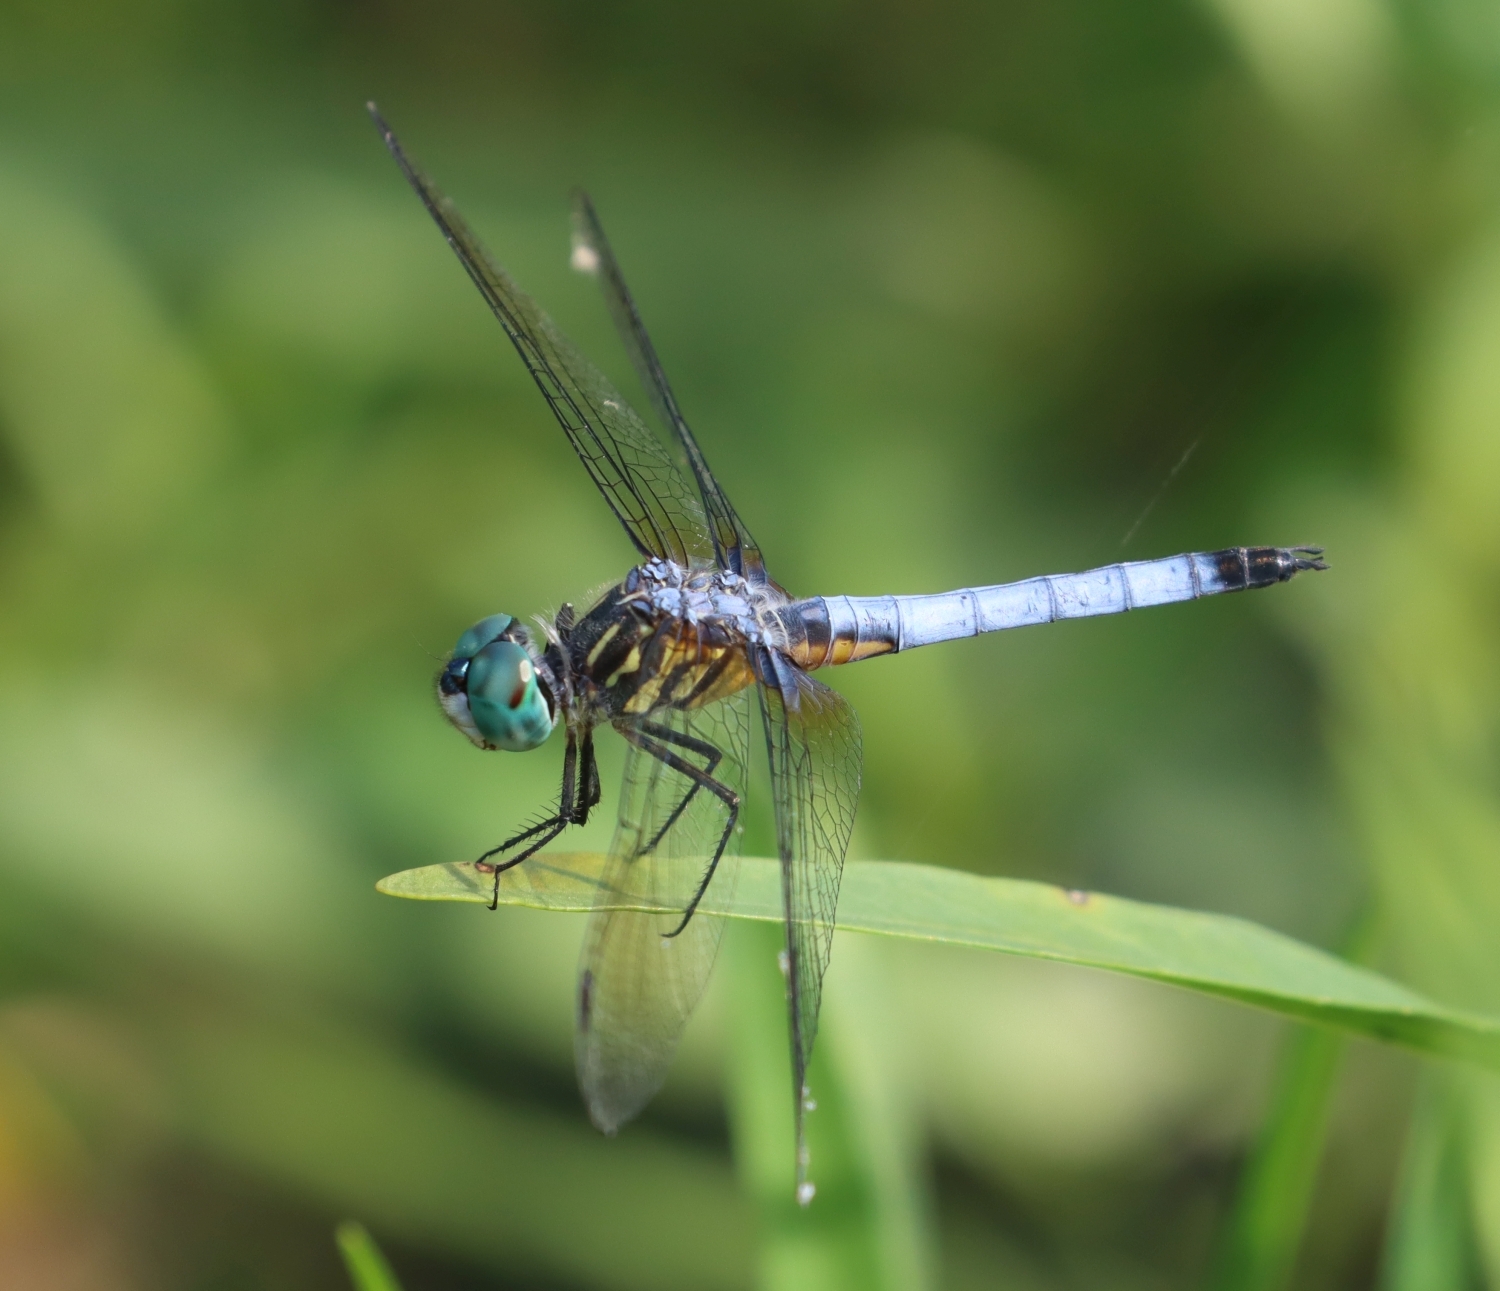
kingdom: Animalia
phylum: Arthropoda
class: Insecta
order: Odonata
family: Libellulidae
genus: Pachydiplax
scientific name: Pachydiplax longipennis
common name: Blue dasher
